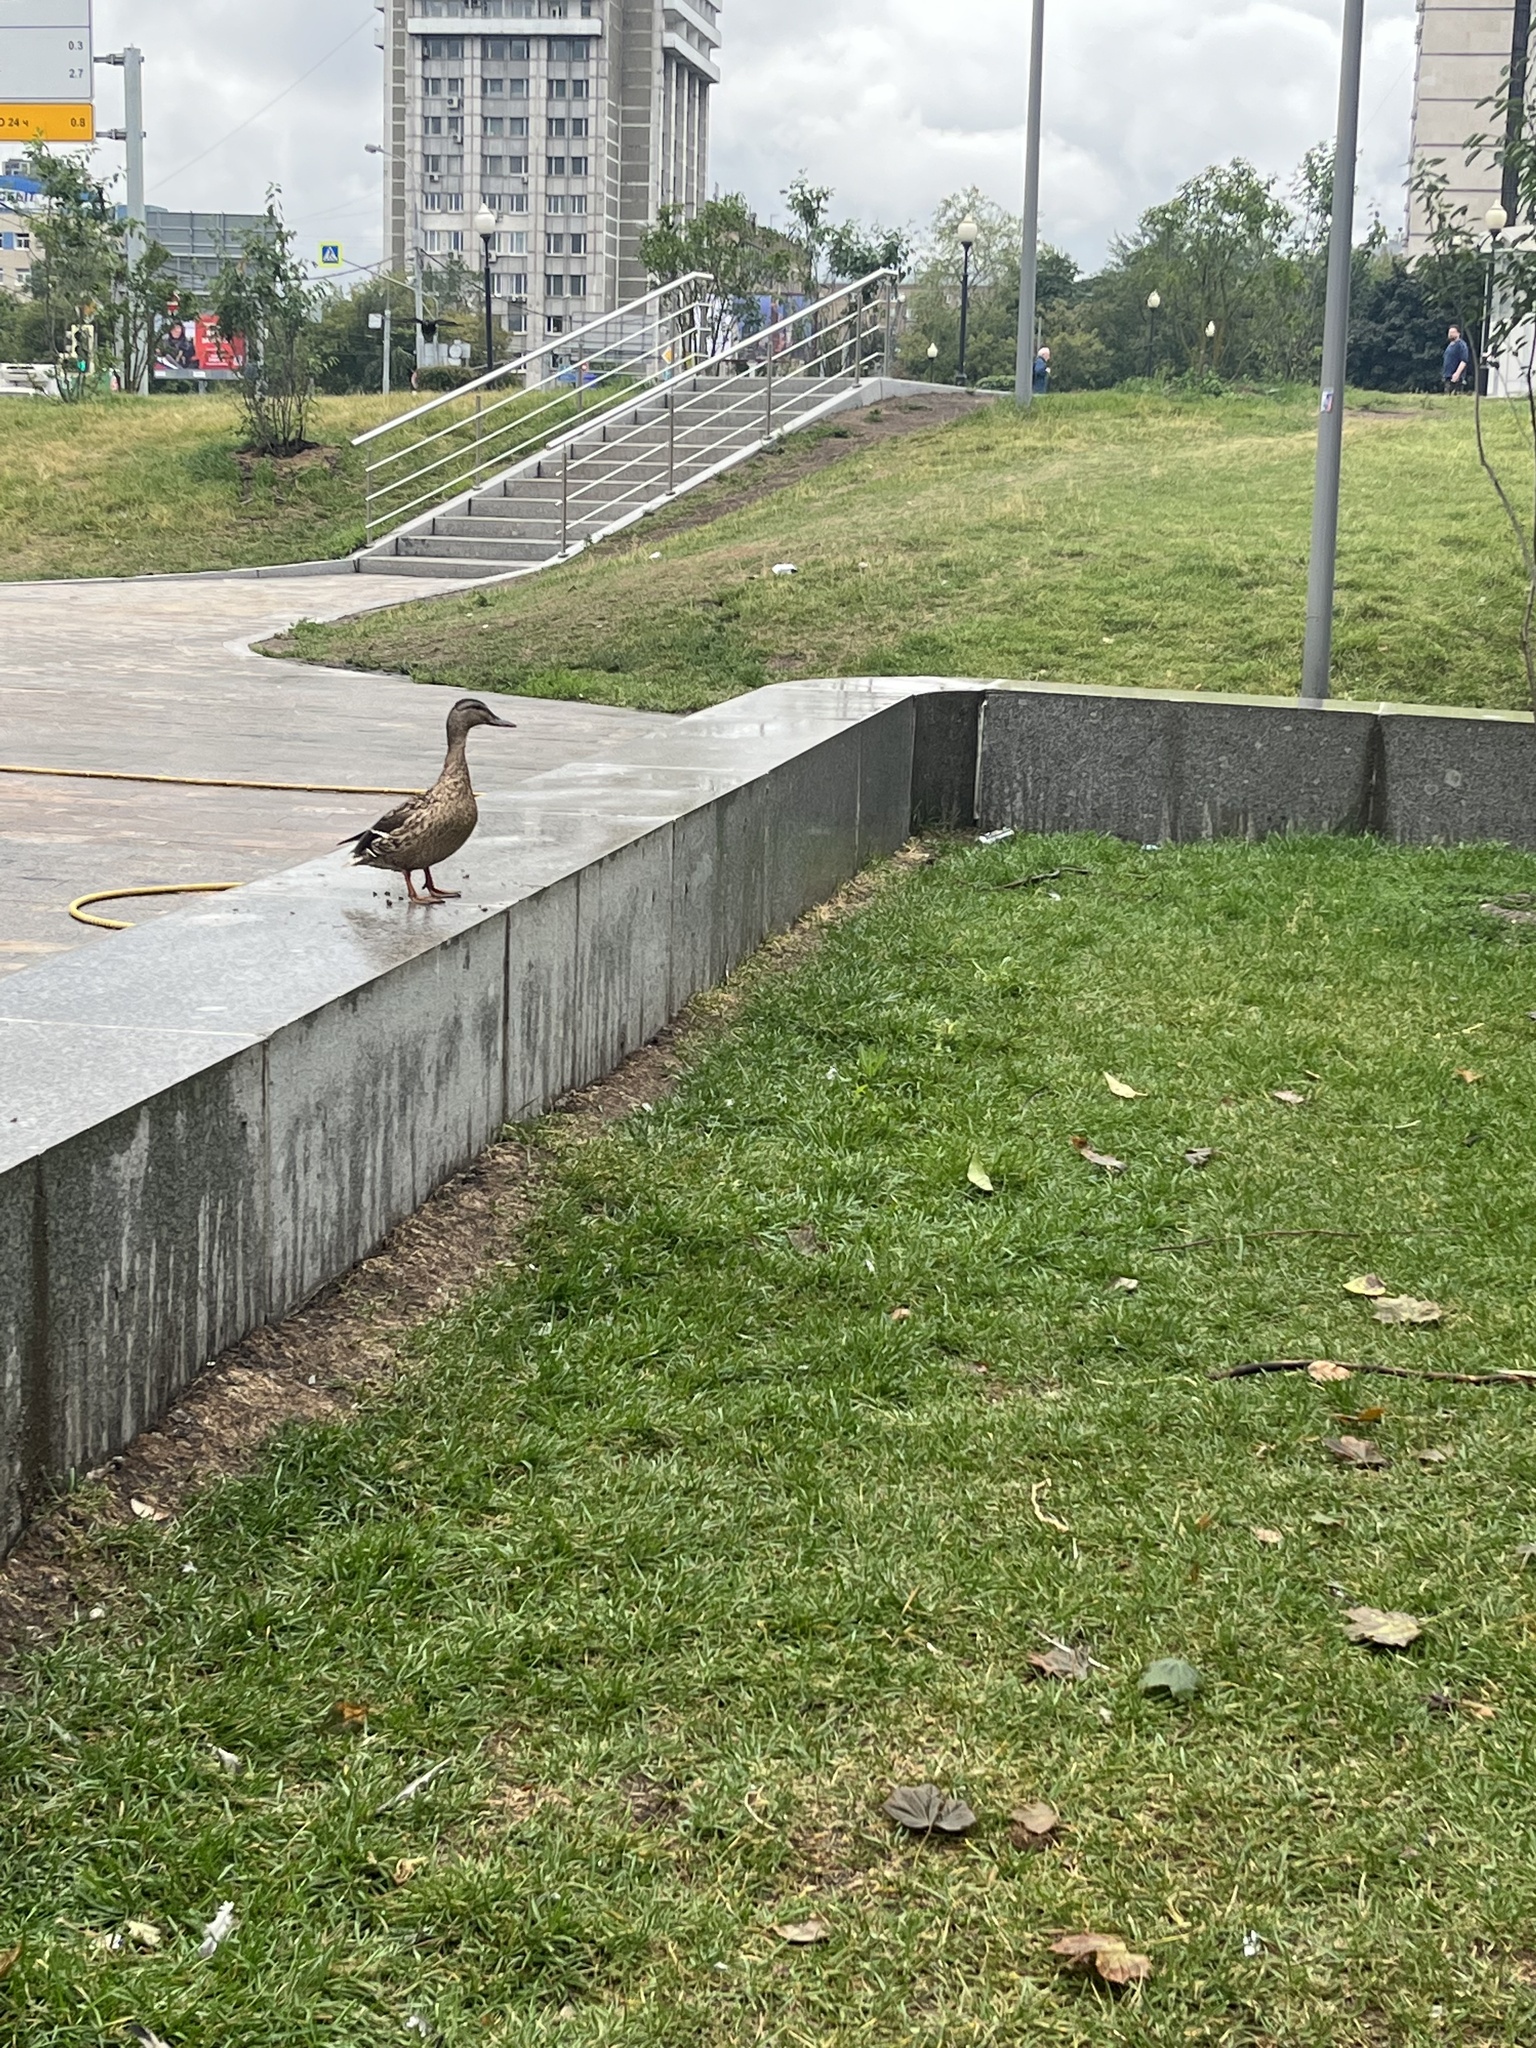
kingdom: Animalia
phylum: Chordata
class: Aves
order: Anseriformes
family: Anatidae
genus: Anas
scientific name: Anas platyrhynchos
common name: Mallard
